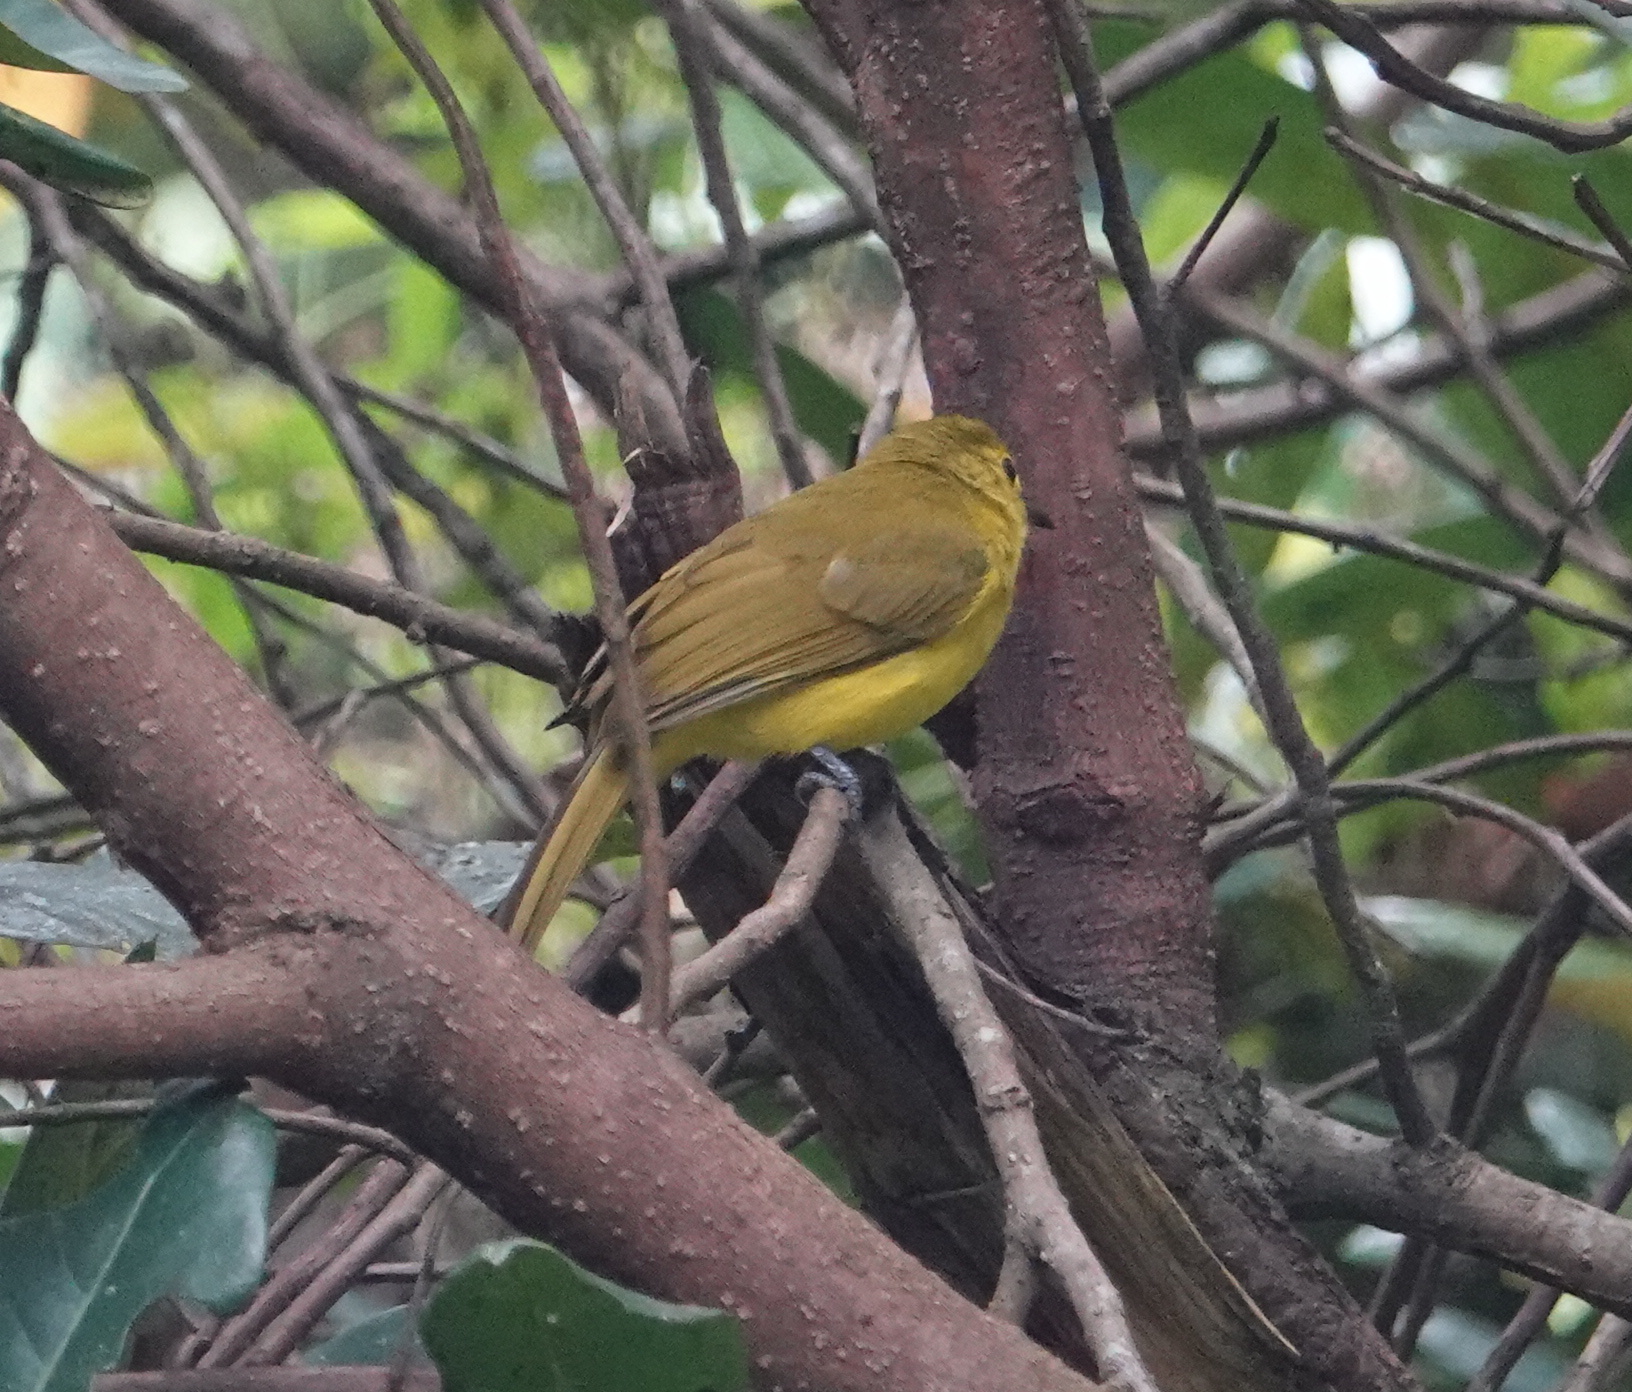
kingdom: Animalia
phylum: Chordata
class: Aves
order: Passeriformes
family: Pycnonotidae
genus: Acritillas
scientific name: Acritillas indica
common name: Yellow-browed bulbul
